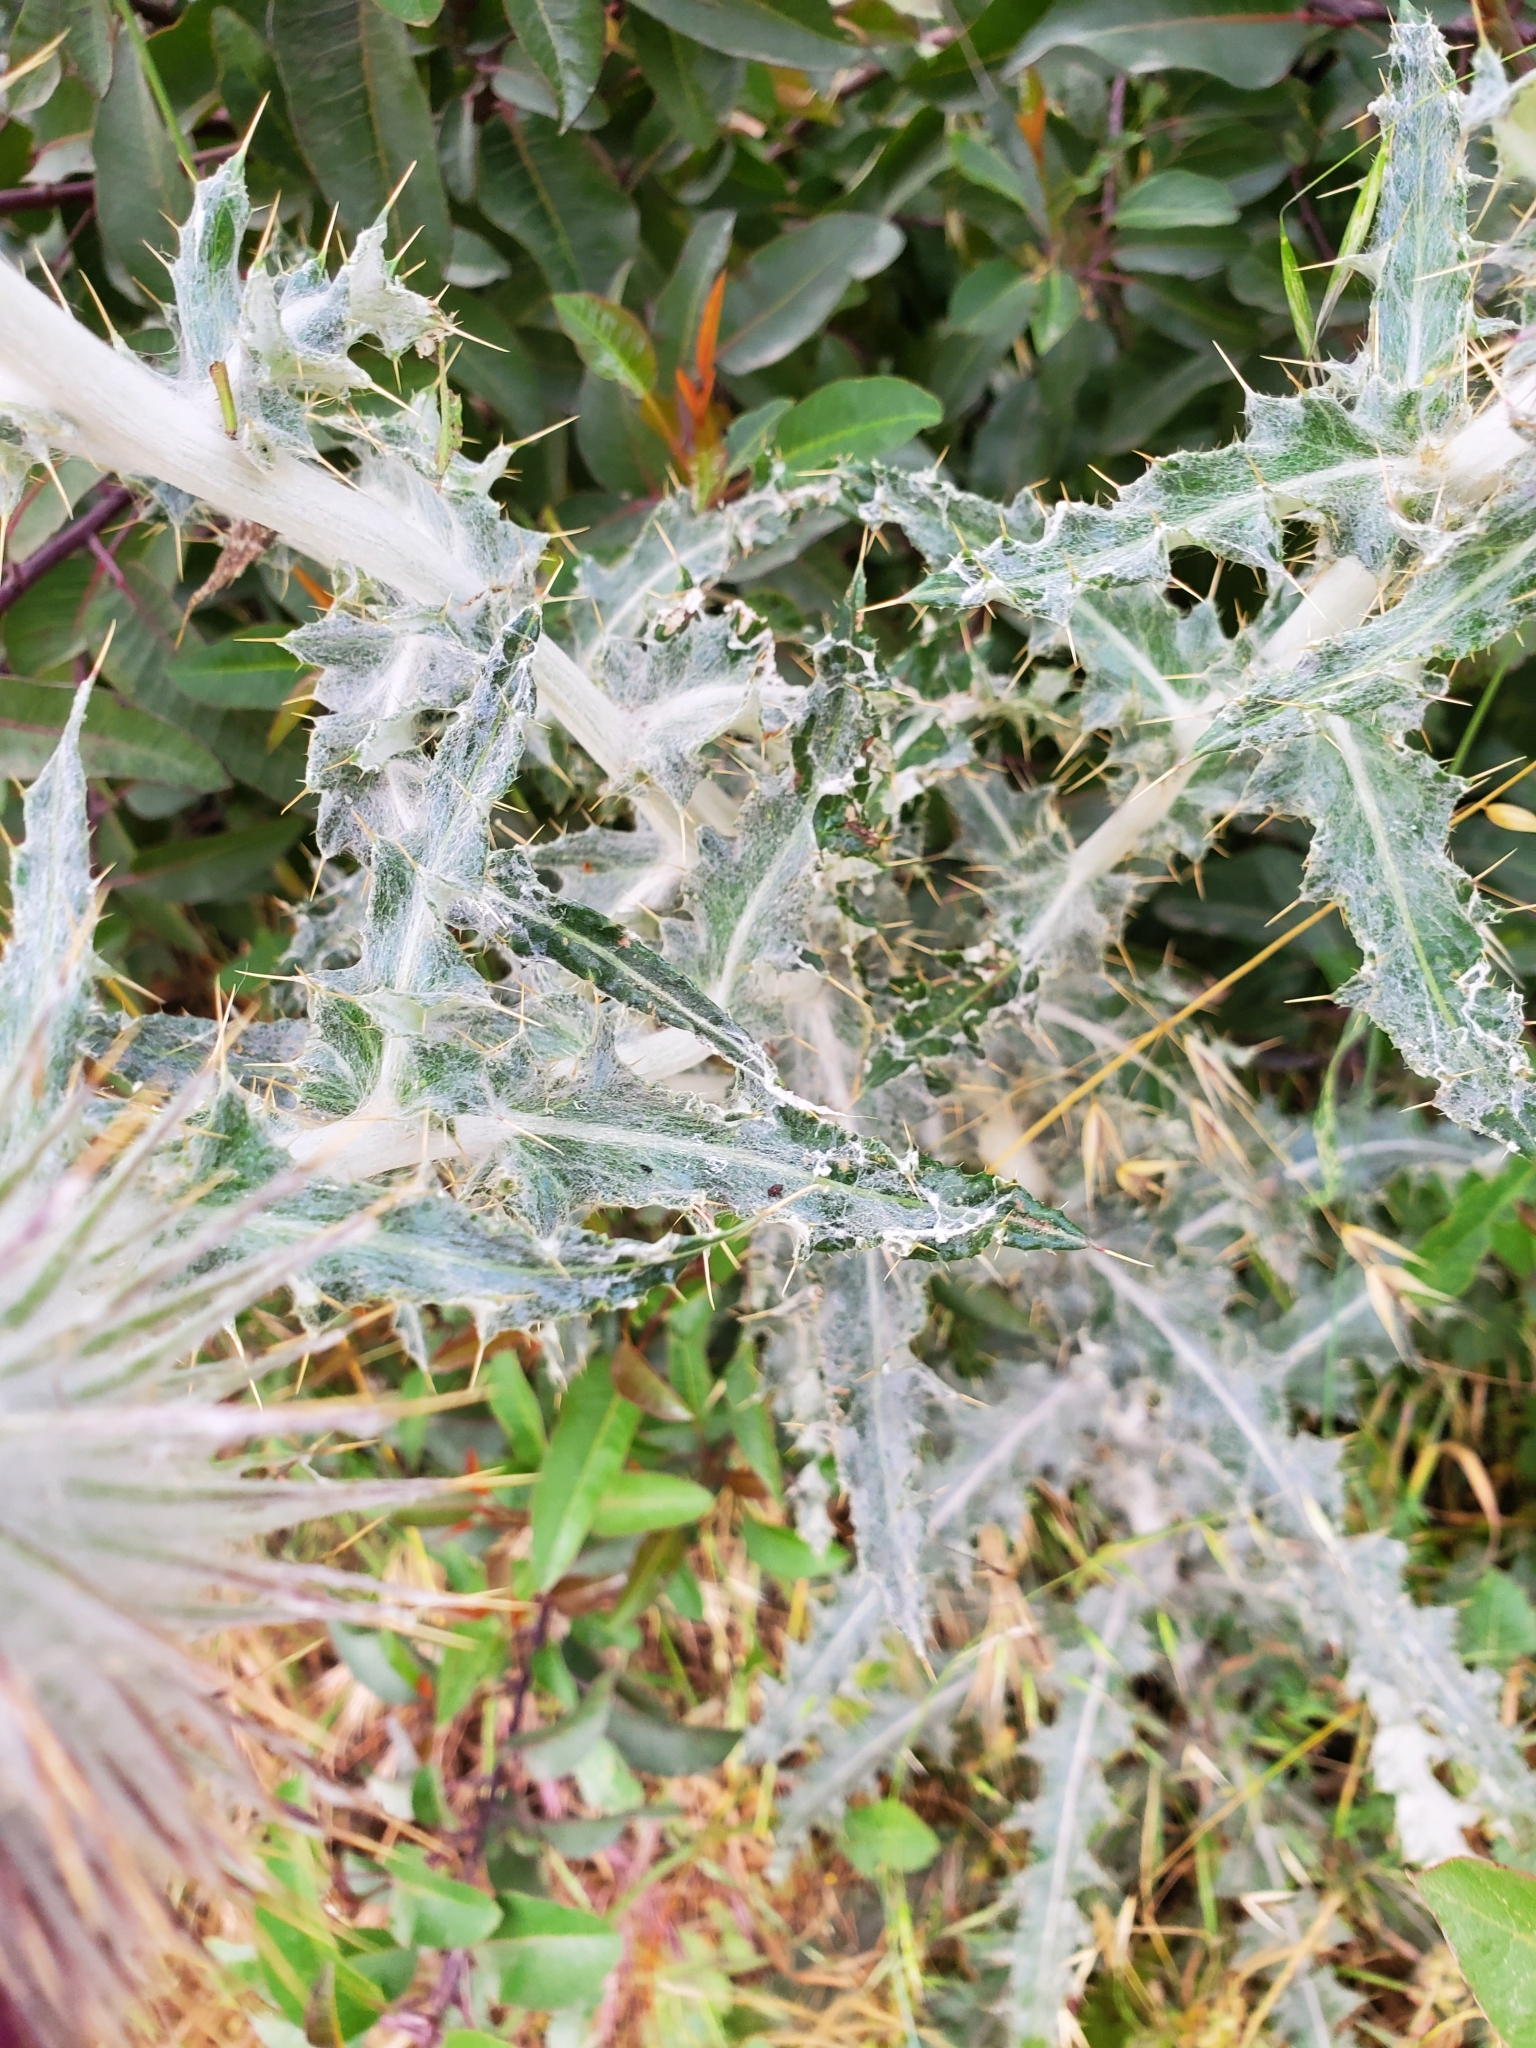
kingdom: Plantae
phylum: Tracheophyta
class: Magnoliopsida
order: Asterales
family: Asteraceae
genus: Cirsium
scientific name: Cirsium occidentale
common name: Western thistle
